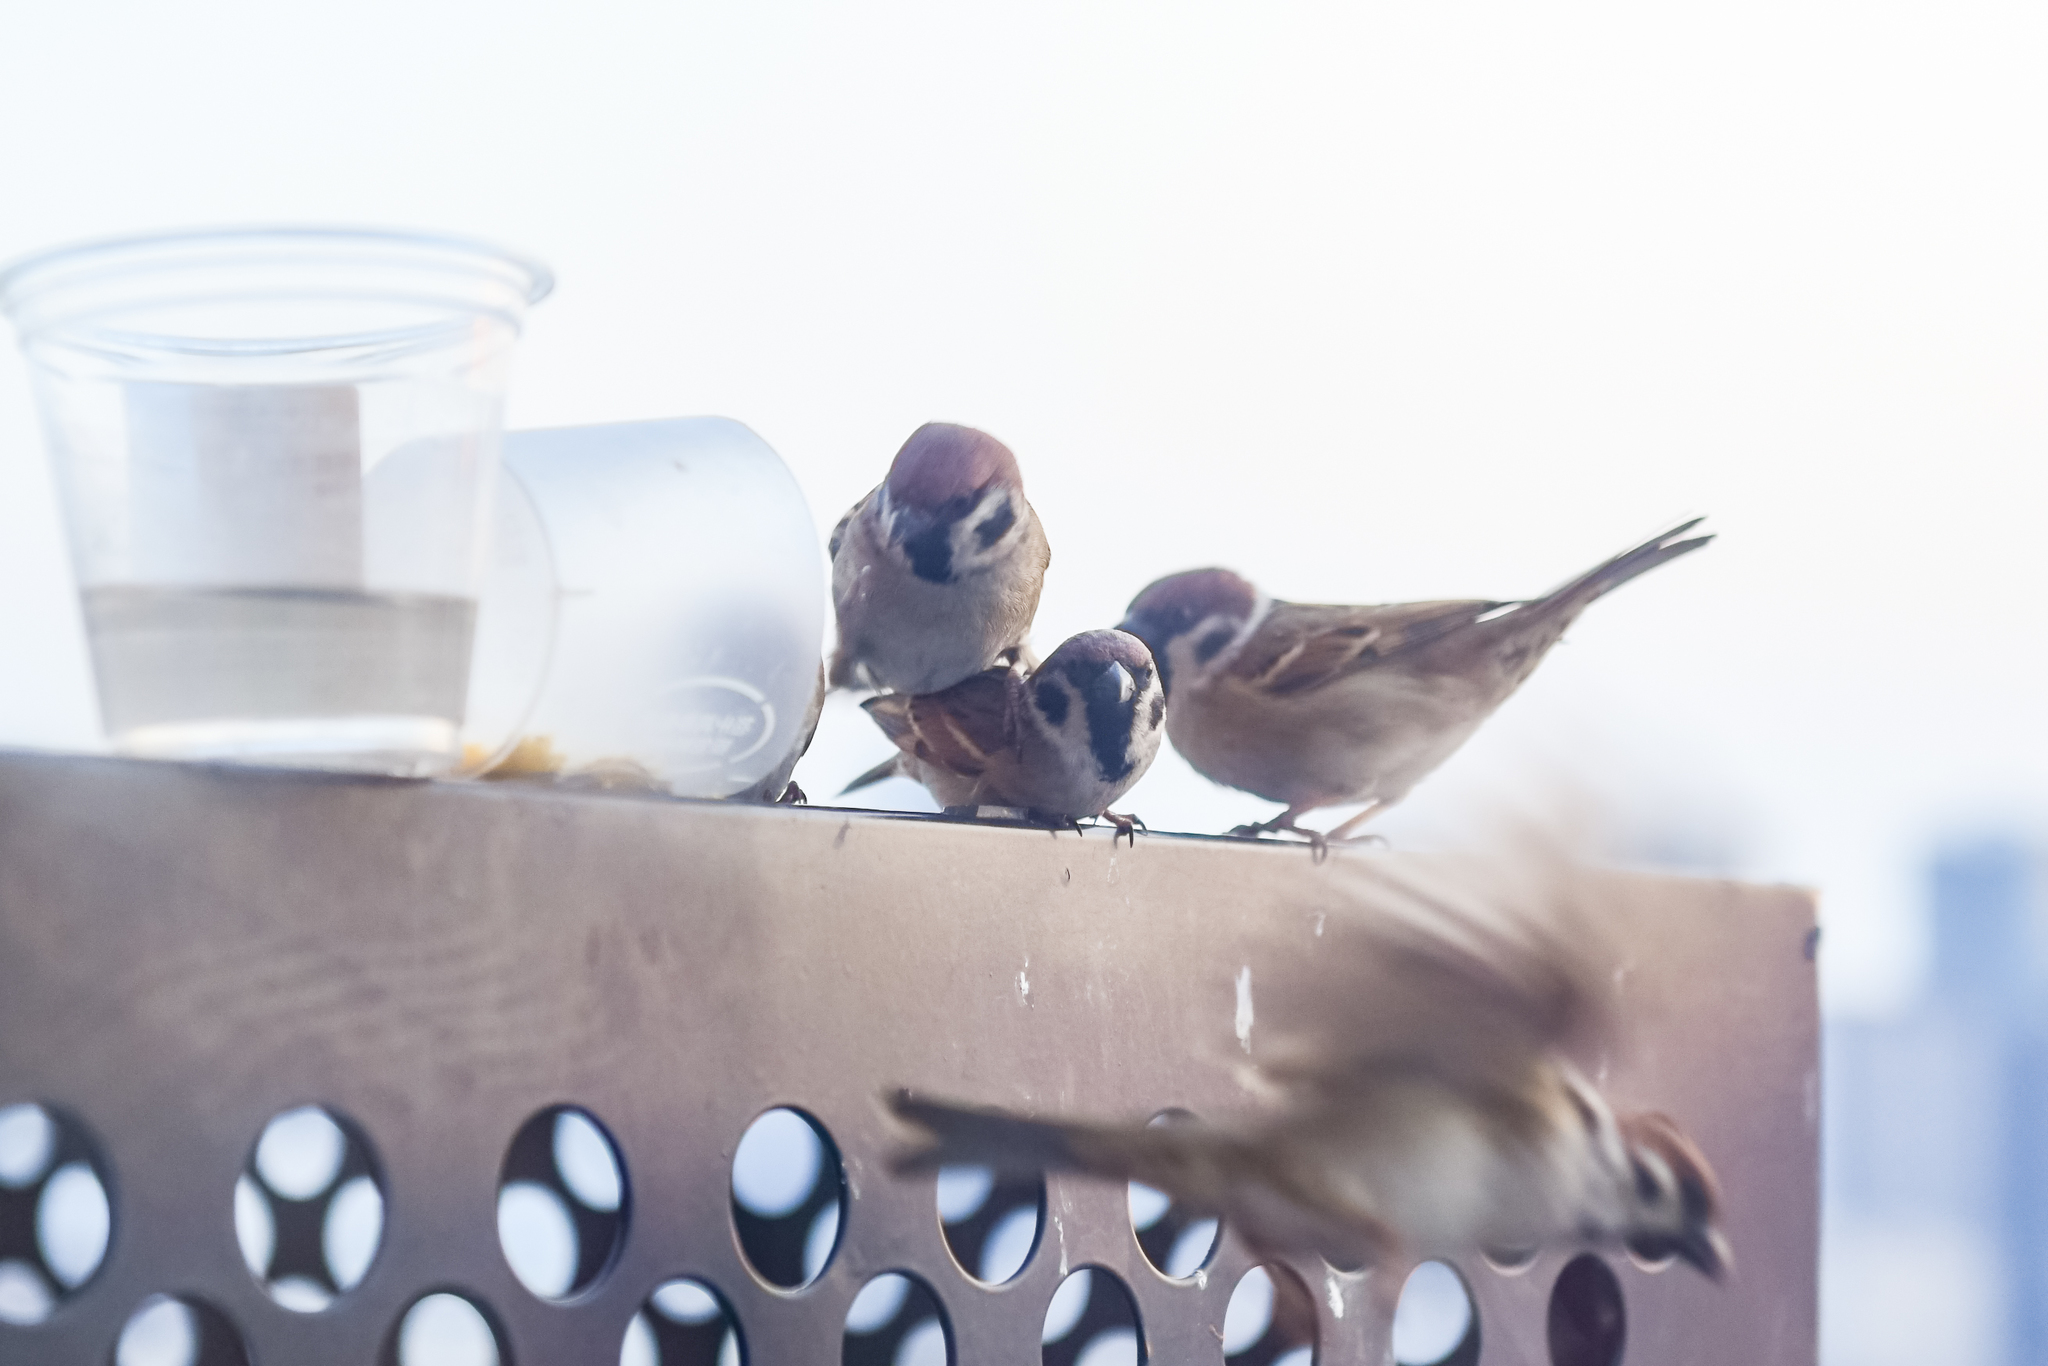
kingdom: Animalia
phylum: Chordata
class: Aves
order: Passeriformes
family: Passeridae
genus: Passer
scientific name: Passer montanus
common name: Eurasian tree sparrow
